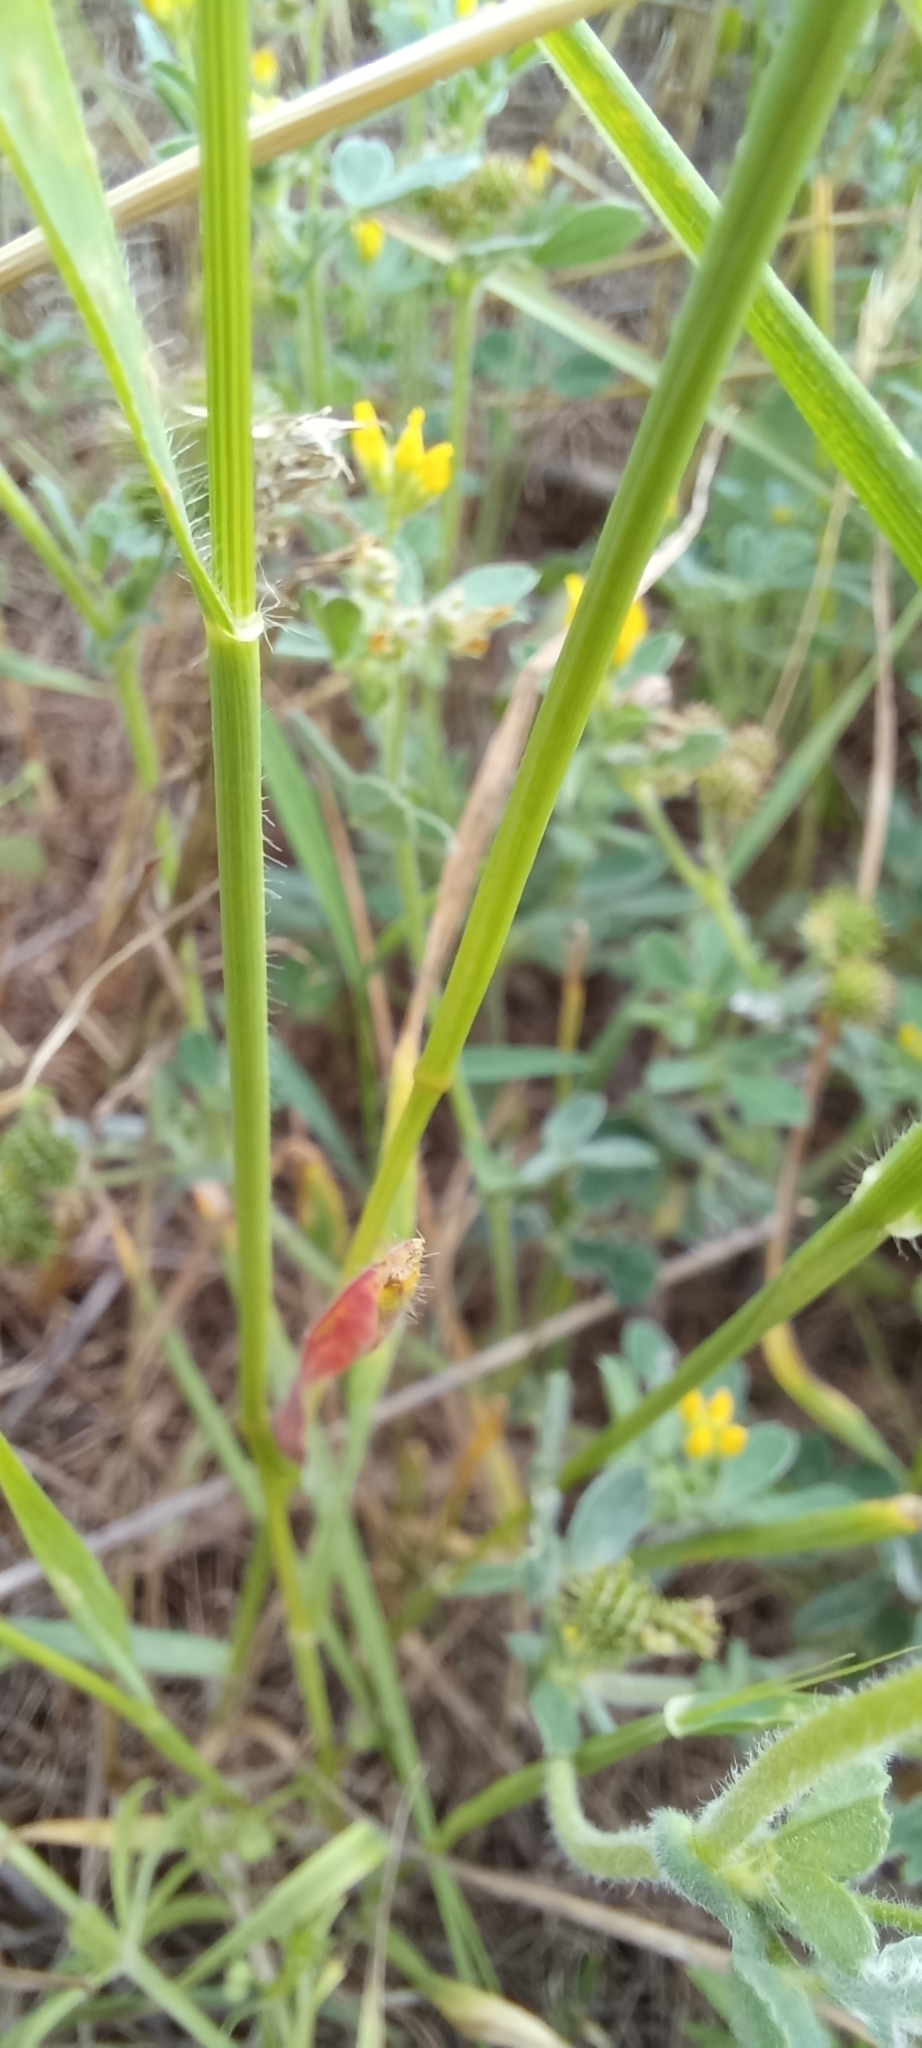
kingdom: Plantae
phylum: Tracheophyta
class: Liliopsida
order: Poales
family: Poaceae
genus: Aegilops
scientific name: Aegilops cylindrica
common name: Jointed goatgrass
